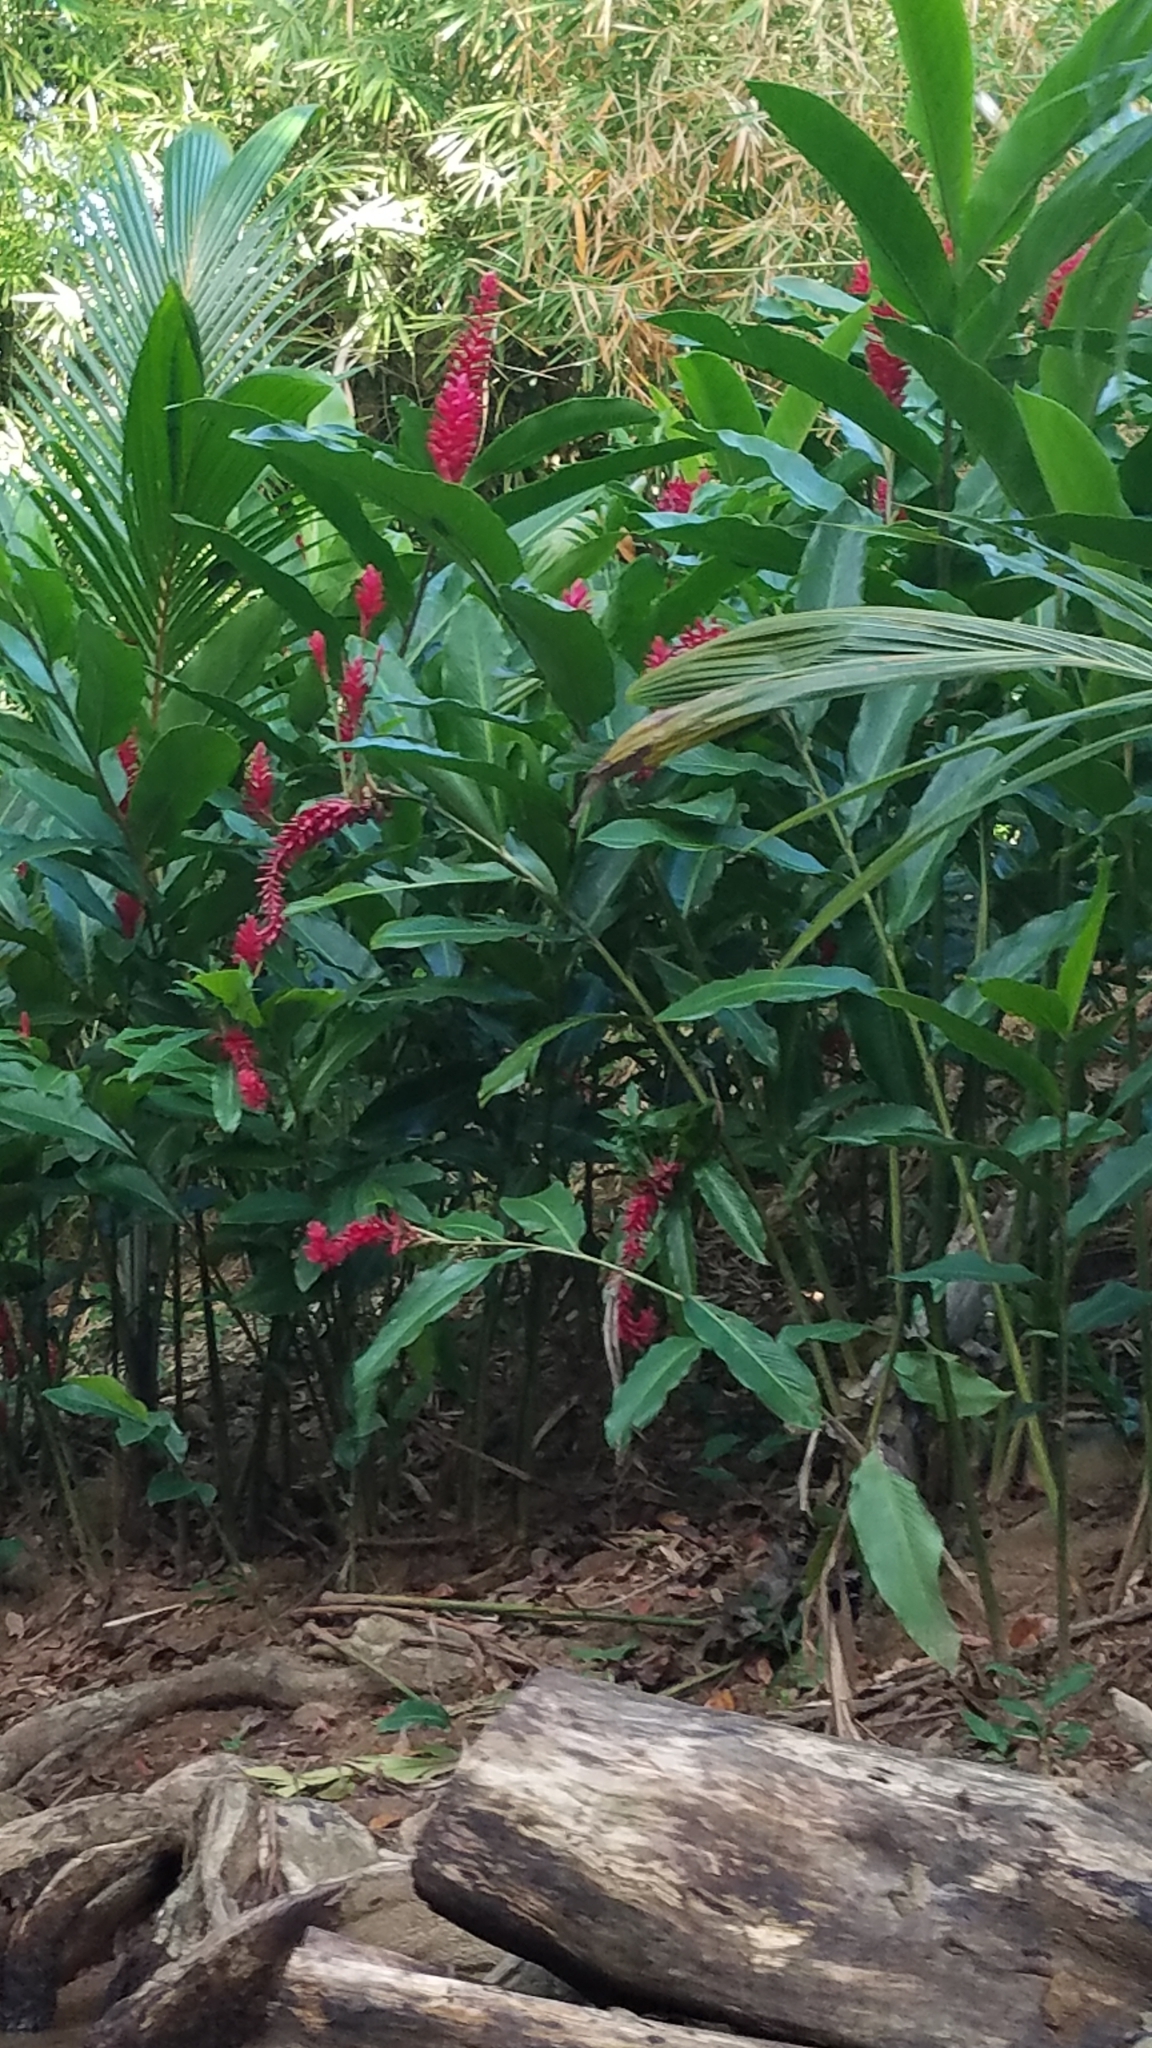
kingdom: Plantae
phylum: Tracheophyta
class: Liliopsida
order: Zingiberales
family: Zingiberaceae
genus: Alpinia
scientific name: Alpinia purpurata
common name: Red ginger
